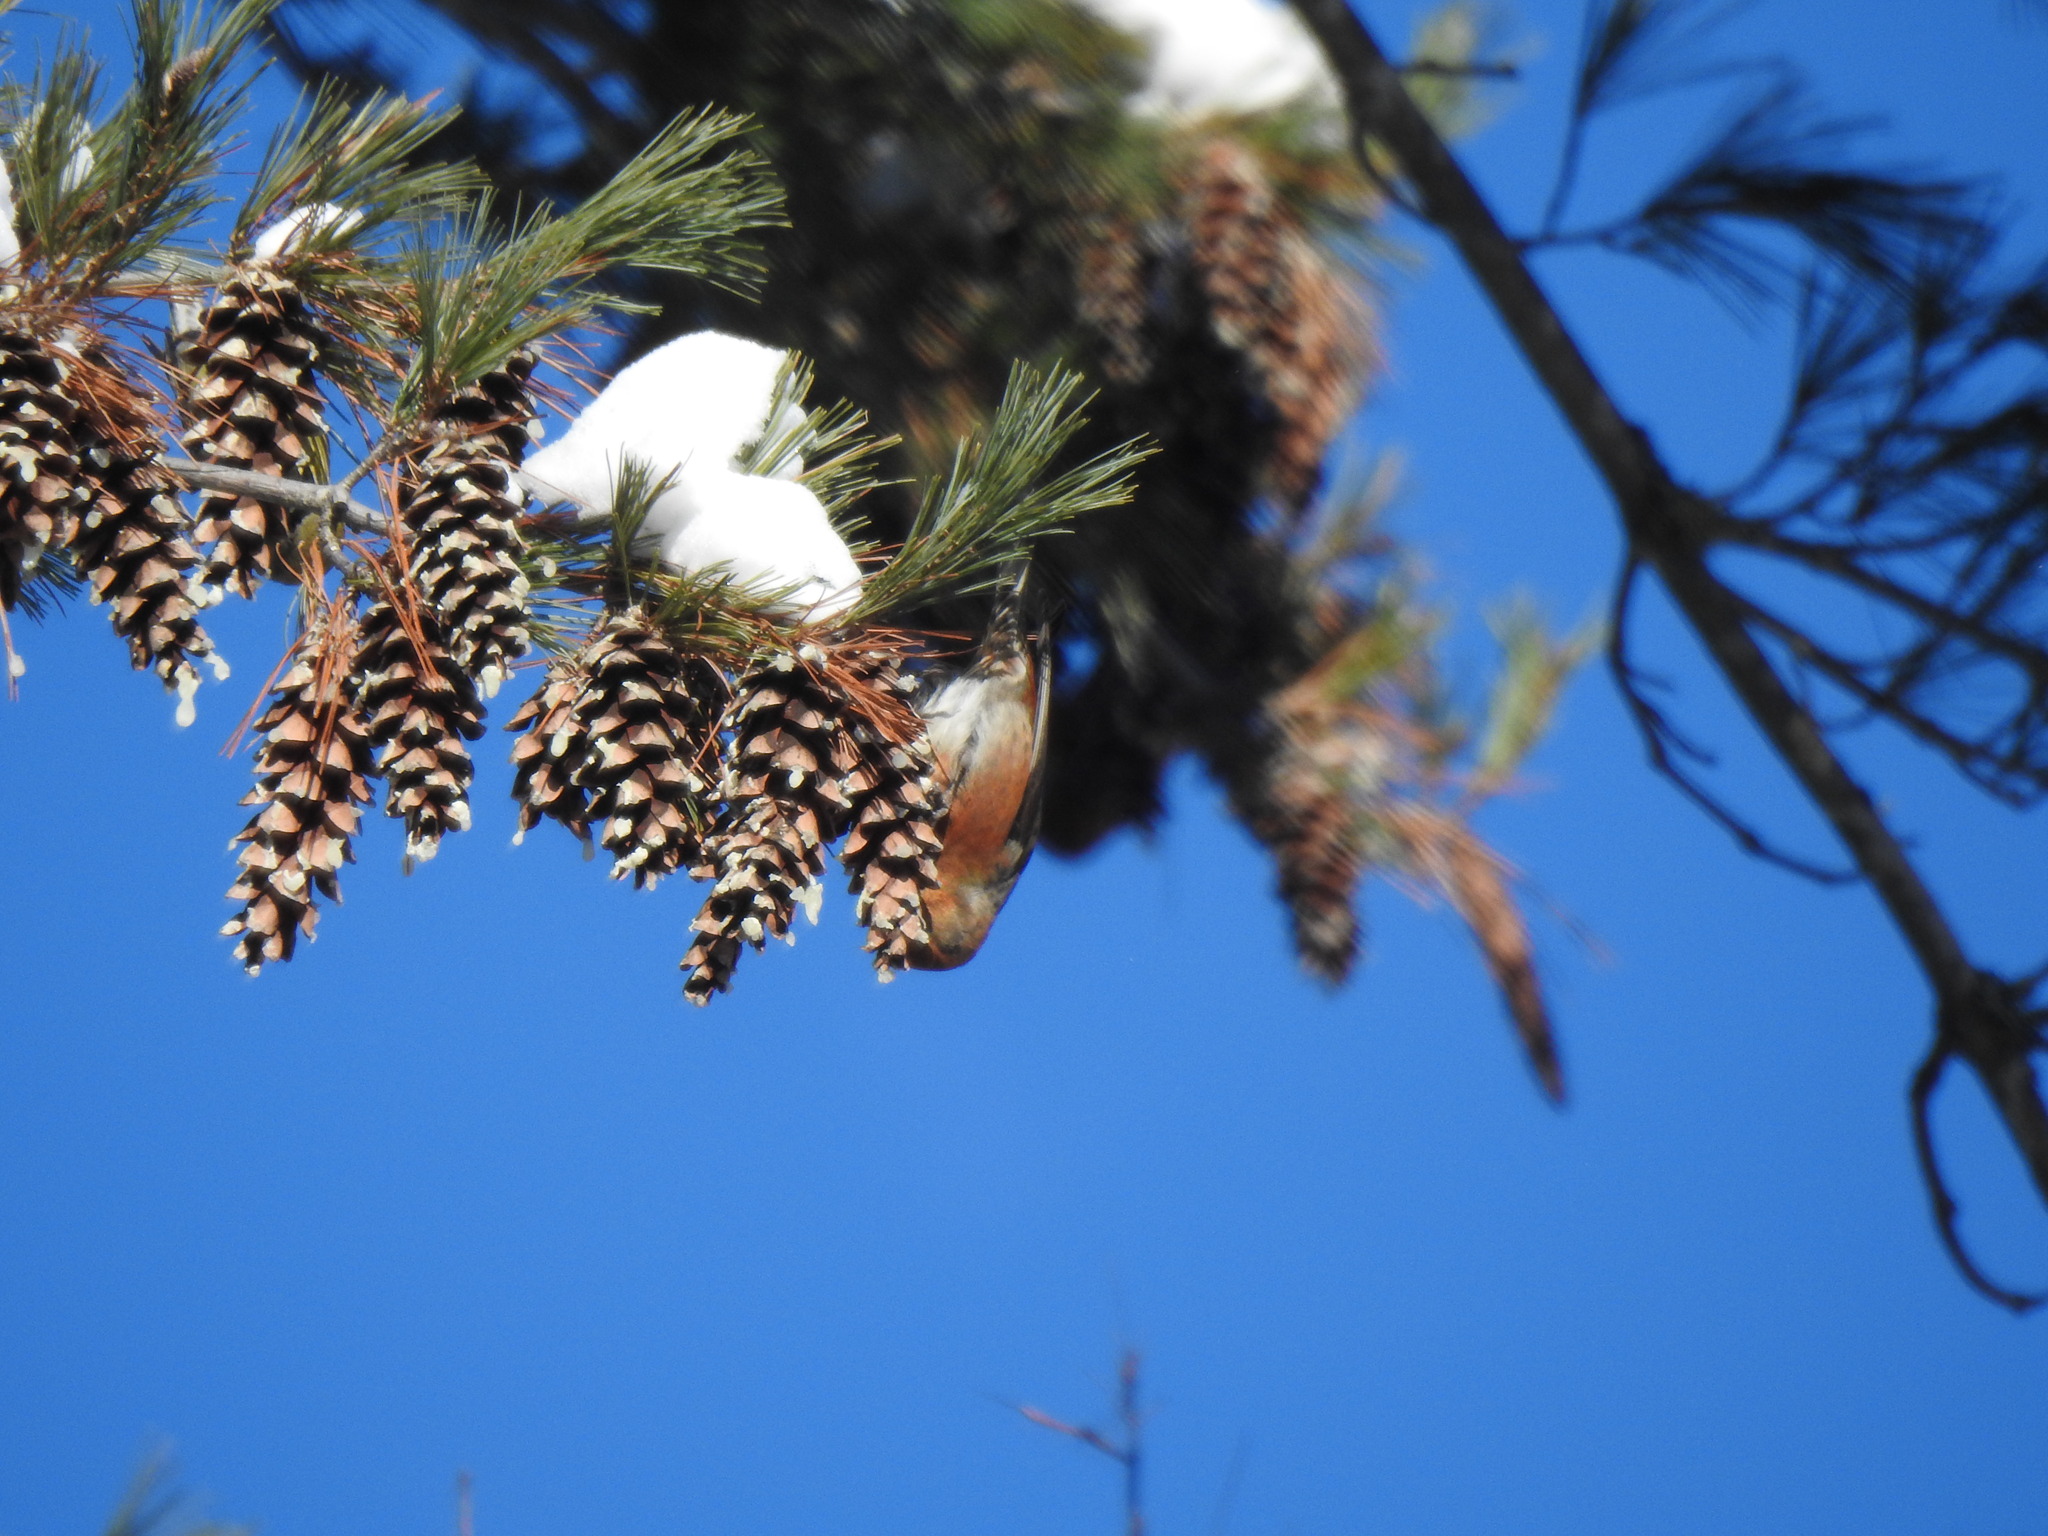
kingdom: Animalia
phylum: Chordata
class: Aves
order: Passeriformes
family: Fringillidae
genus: Loxia
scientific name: Loxia curvirostra
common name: Red crossbill
